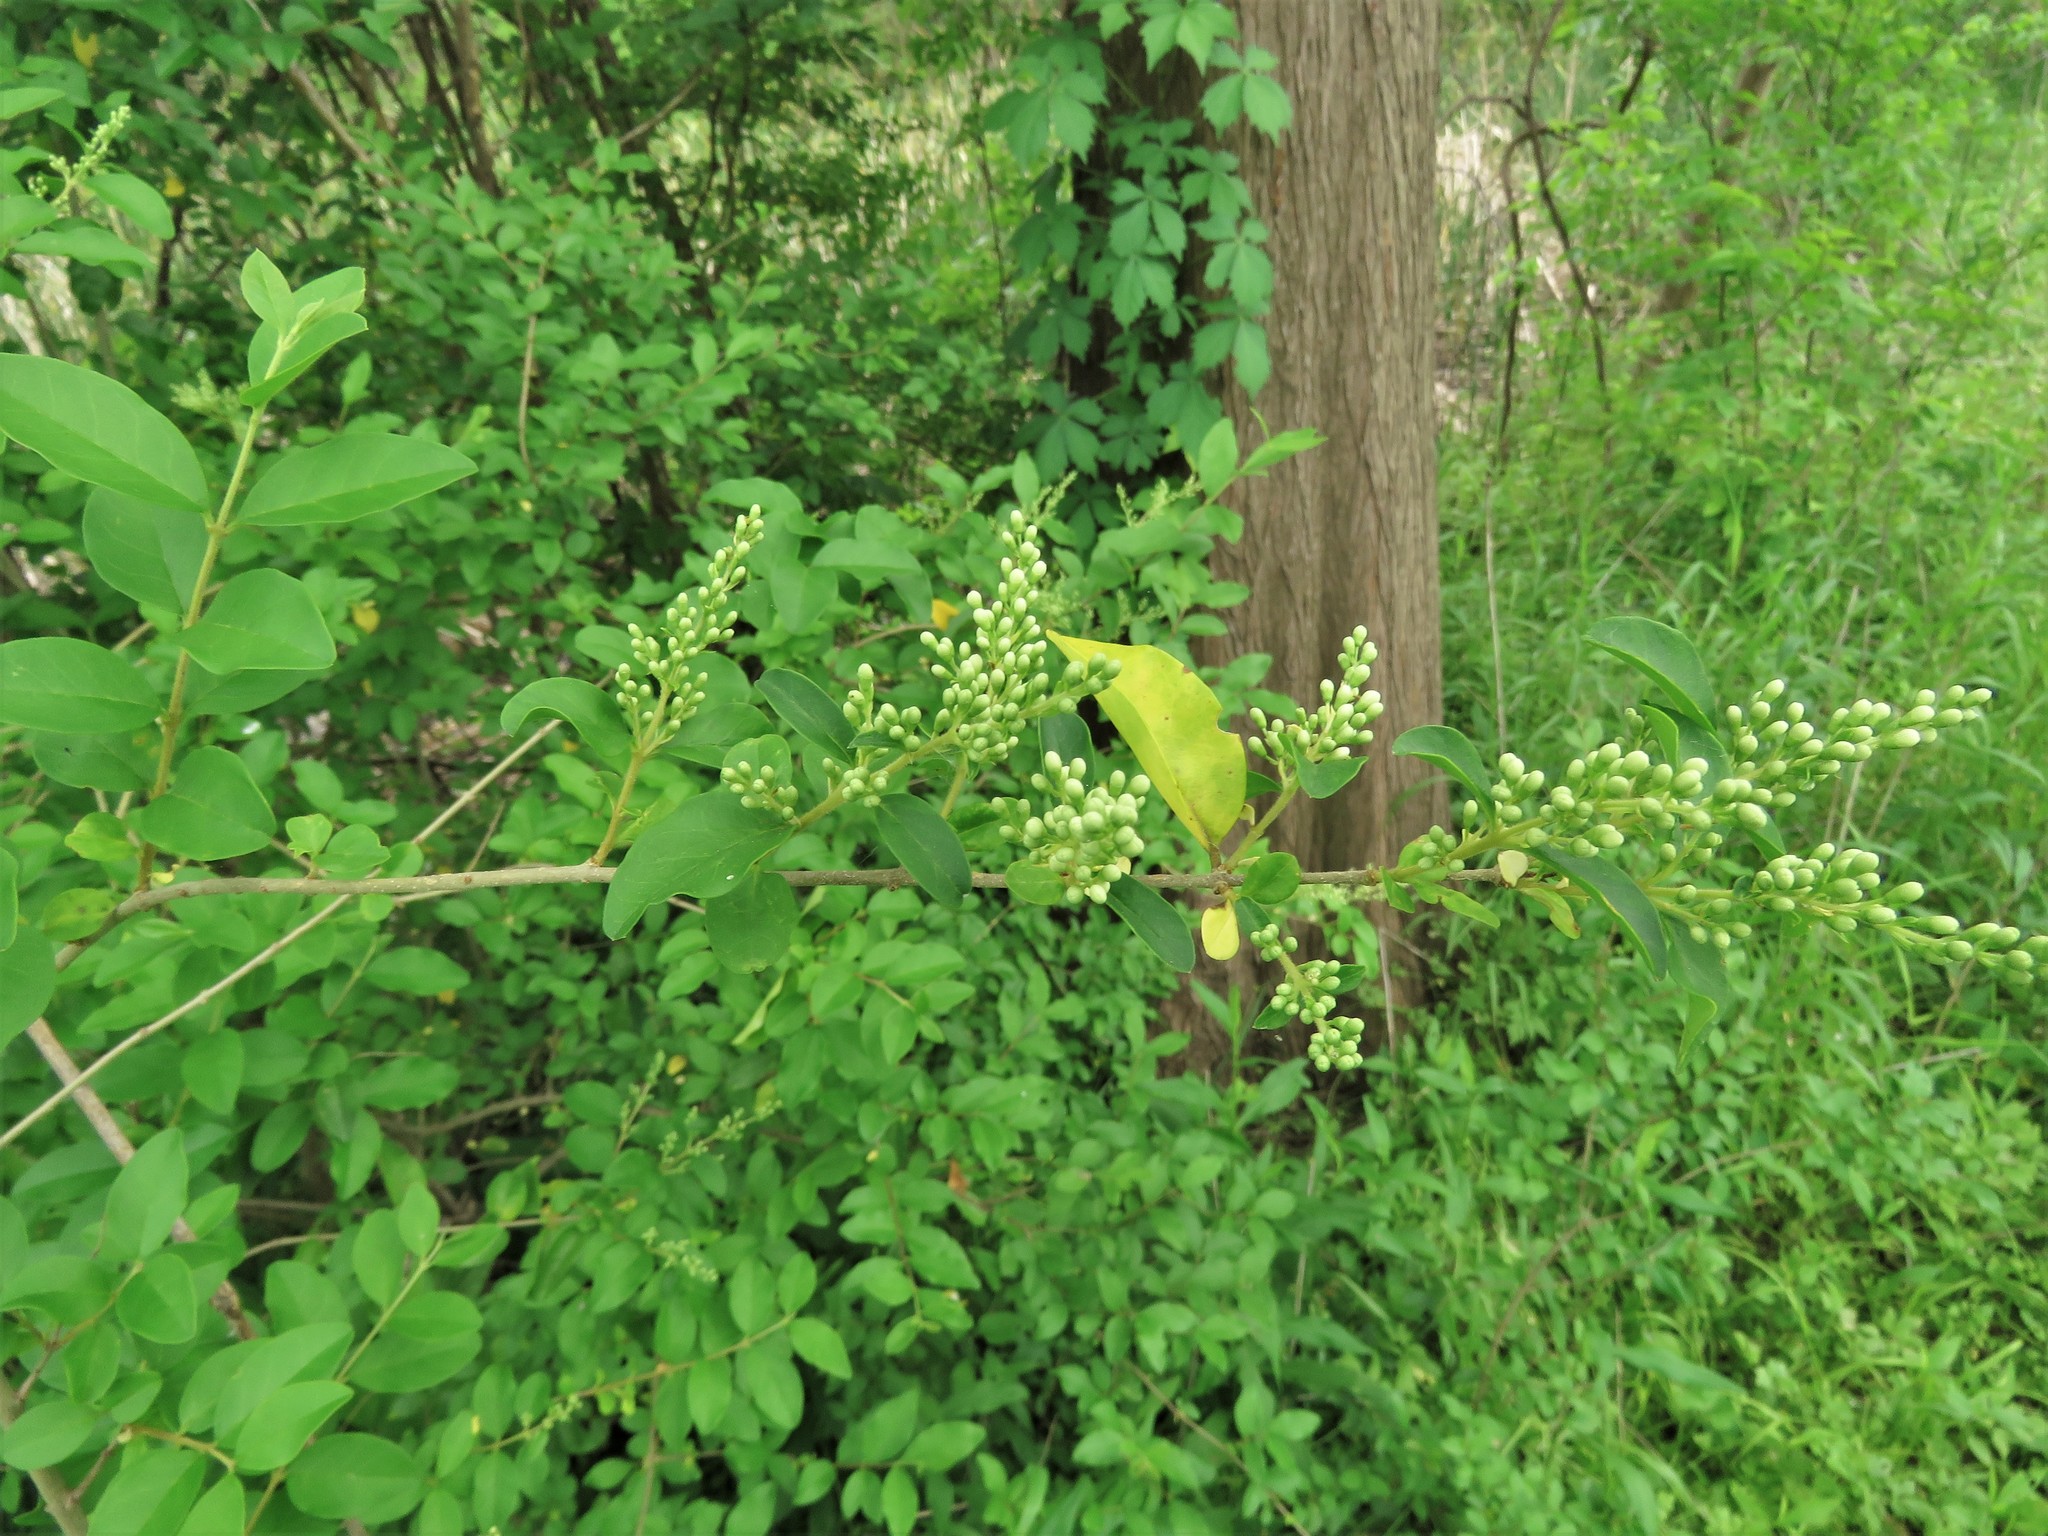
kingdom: Plantae
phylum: Tracheophyta
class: Magnoliopsida
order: Lamiales
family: Oleaceae
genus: Ligustrum
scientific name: Ligustrum sinense
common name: Chinese privet
